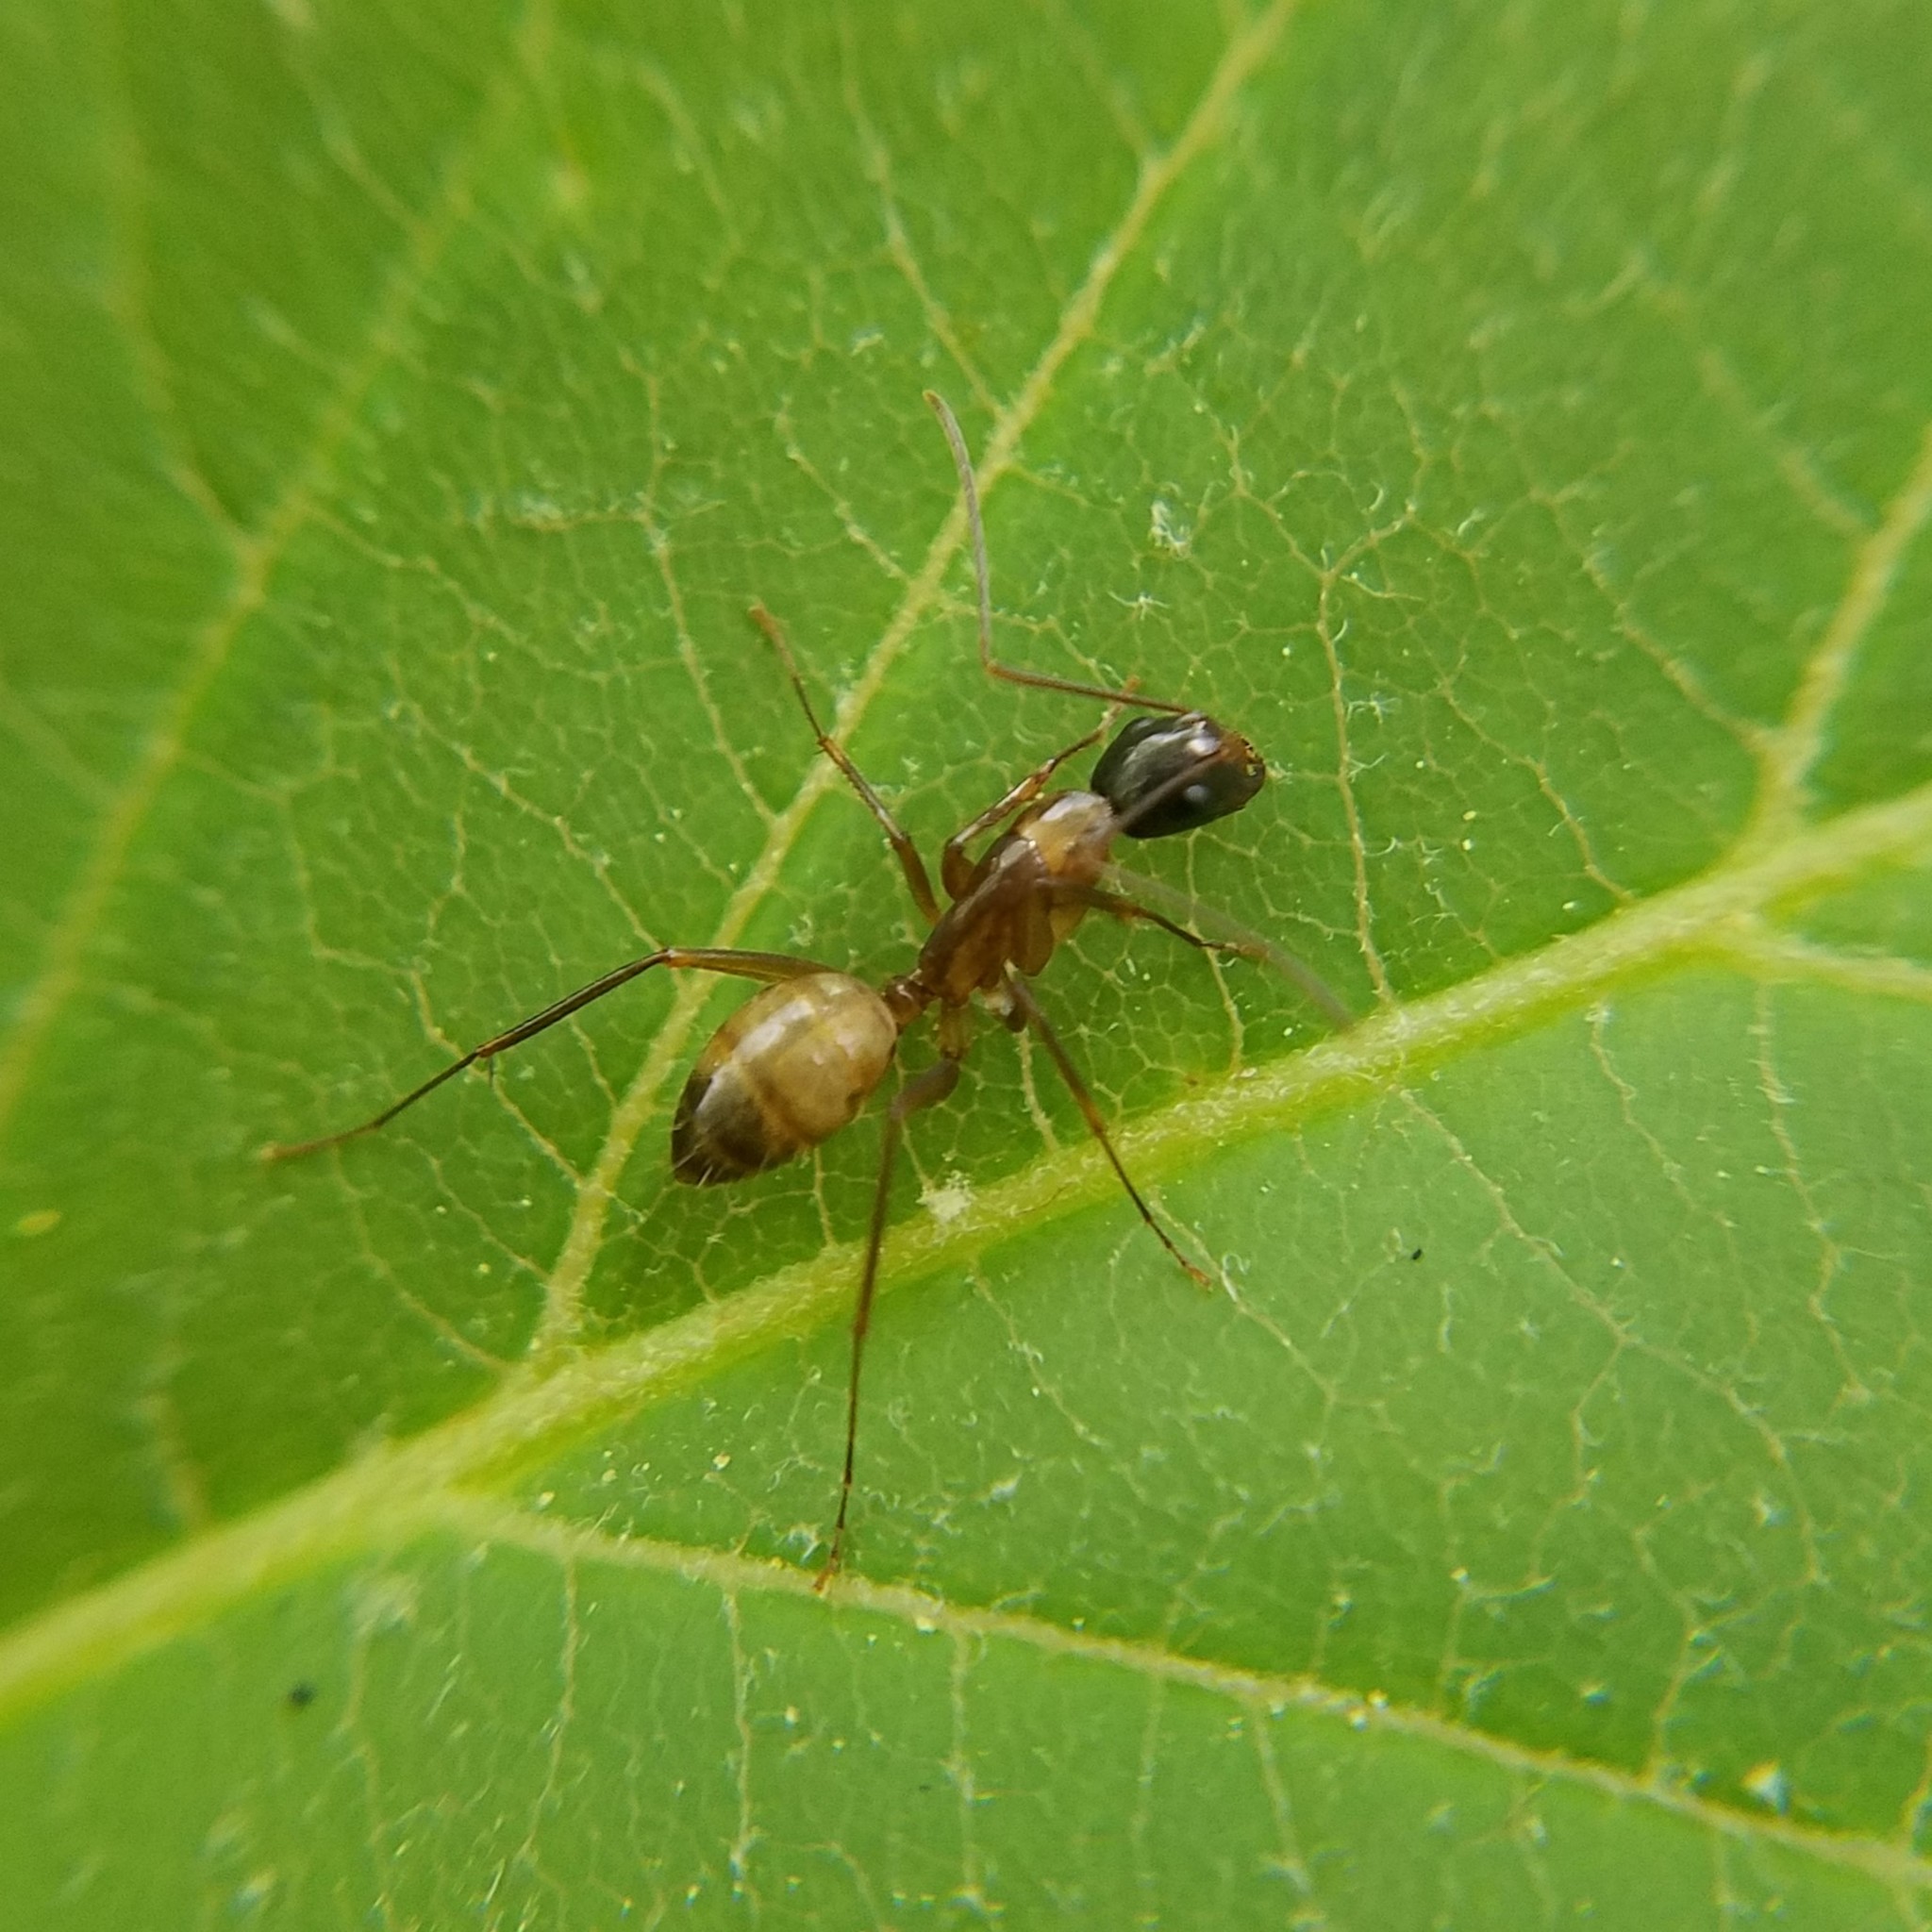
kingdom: Animalia
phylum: Arthropoda
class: Insecta
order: Hymenoptera
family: Formicidae
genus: Camponotus
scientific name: Camponotus americanus
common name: American carpenter ant
